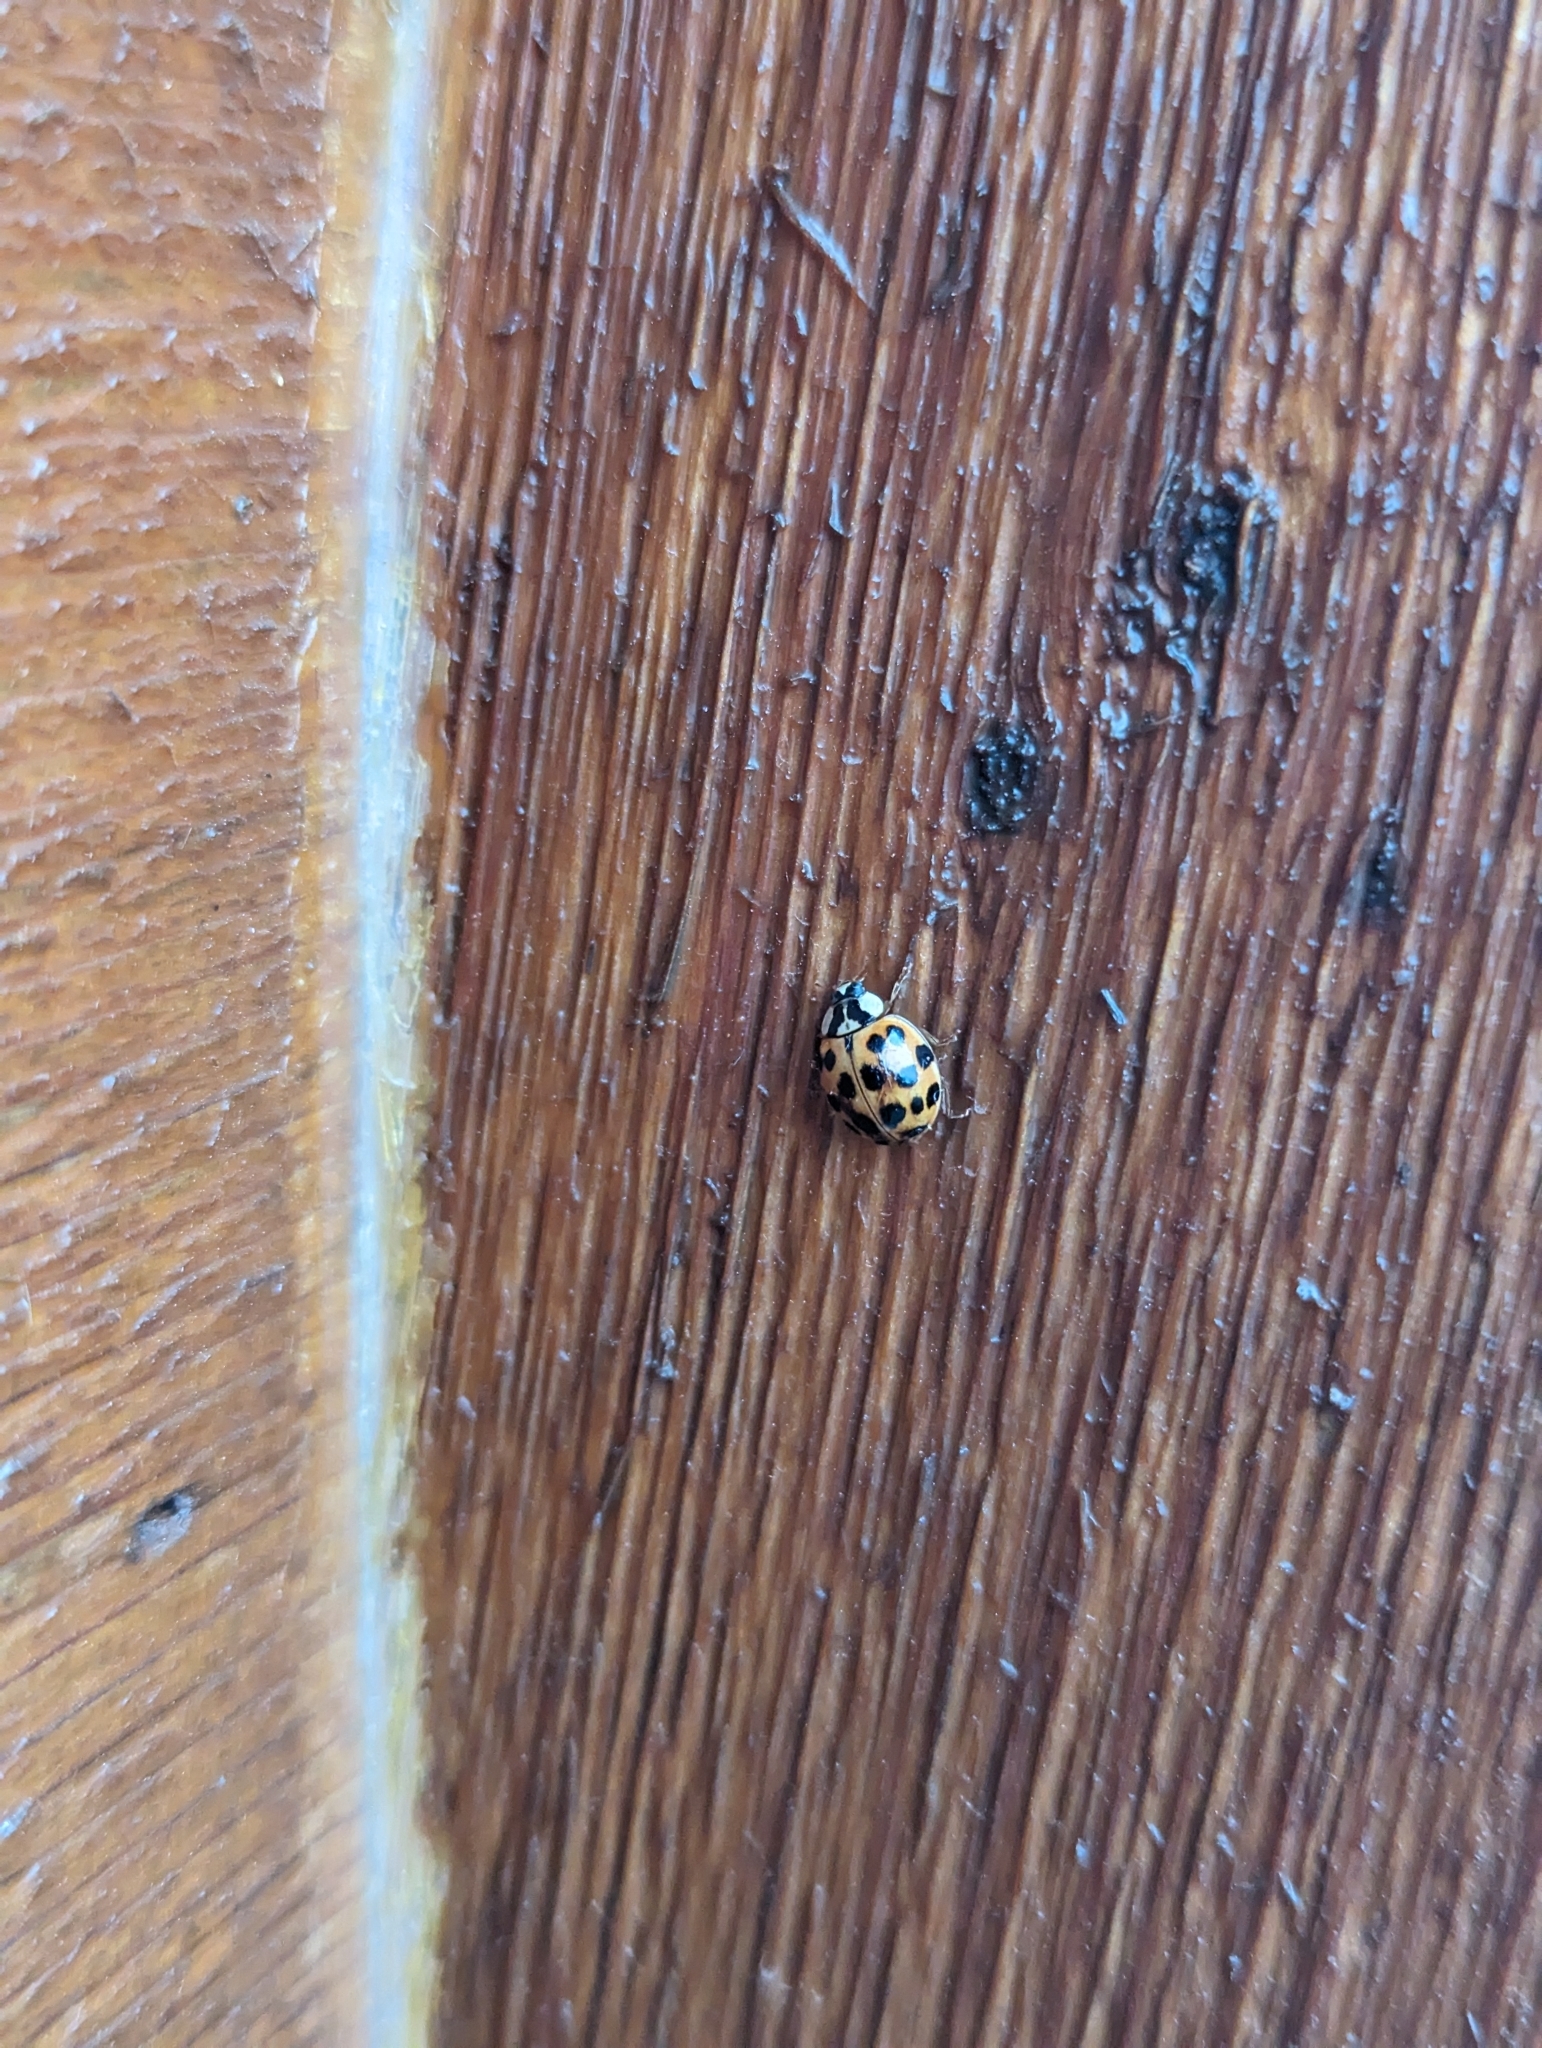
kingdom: Animalia
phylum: Arthropoda
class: Insecta
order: Coleoptera
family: Coccinellidae
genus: Harmonia
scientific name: Harmonia axyridis
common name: Harlequin ladybird
